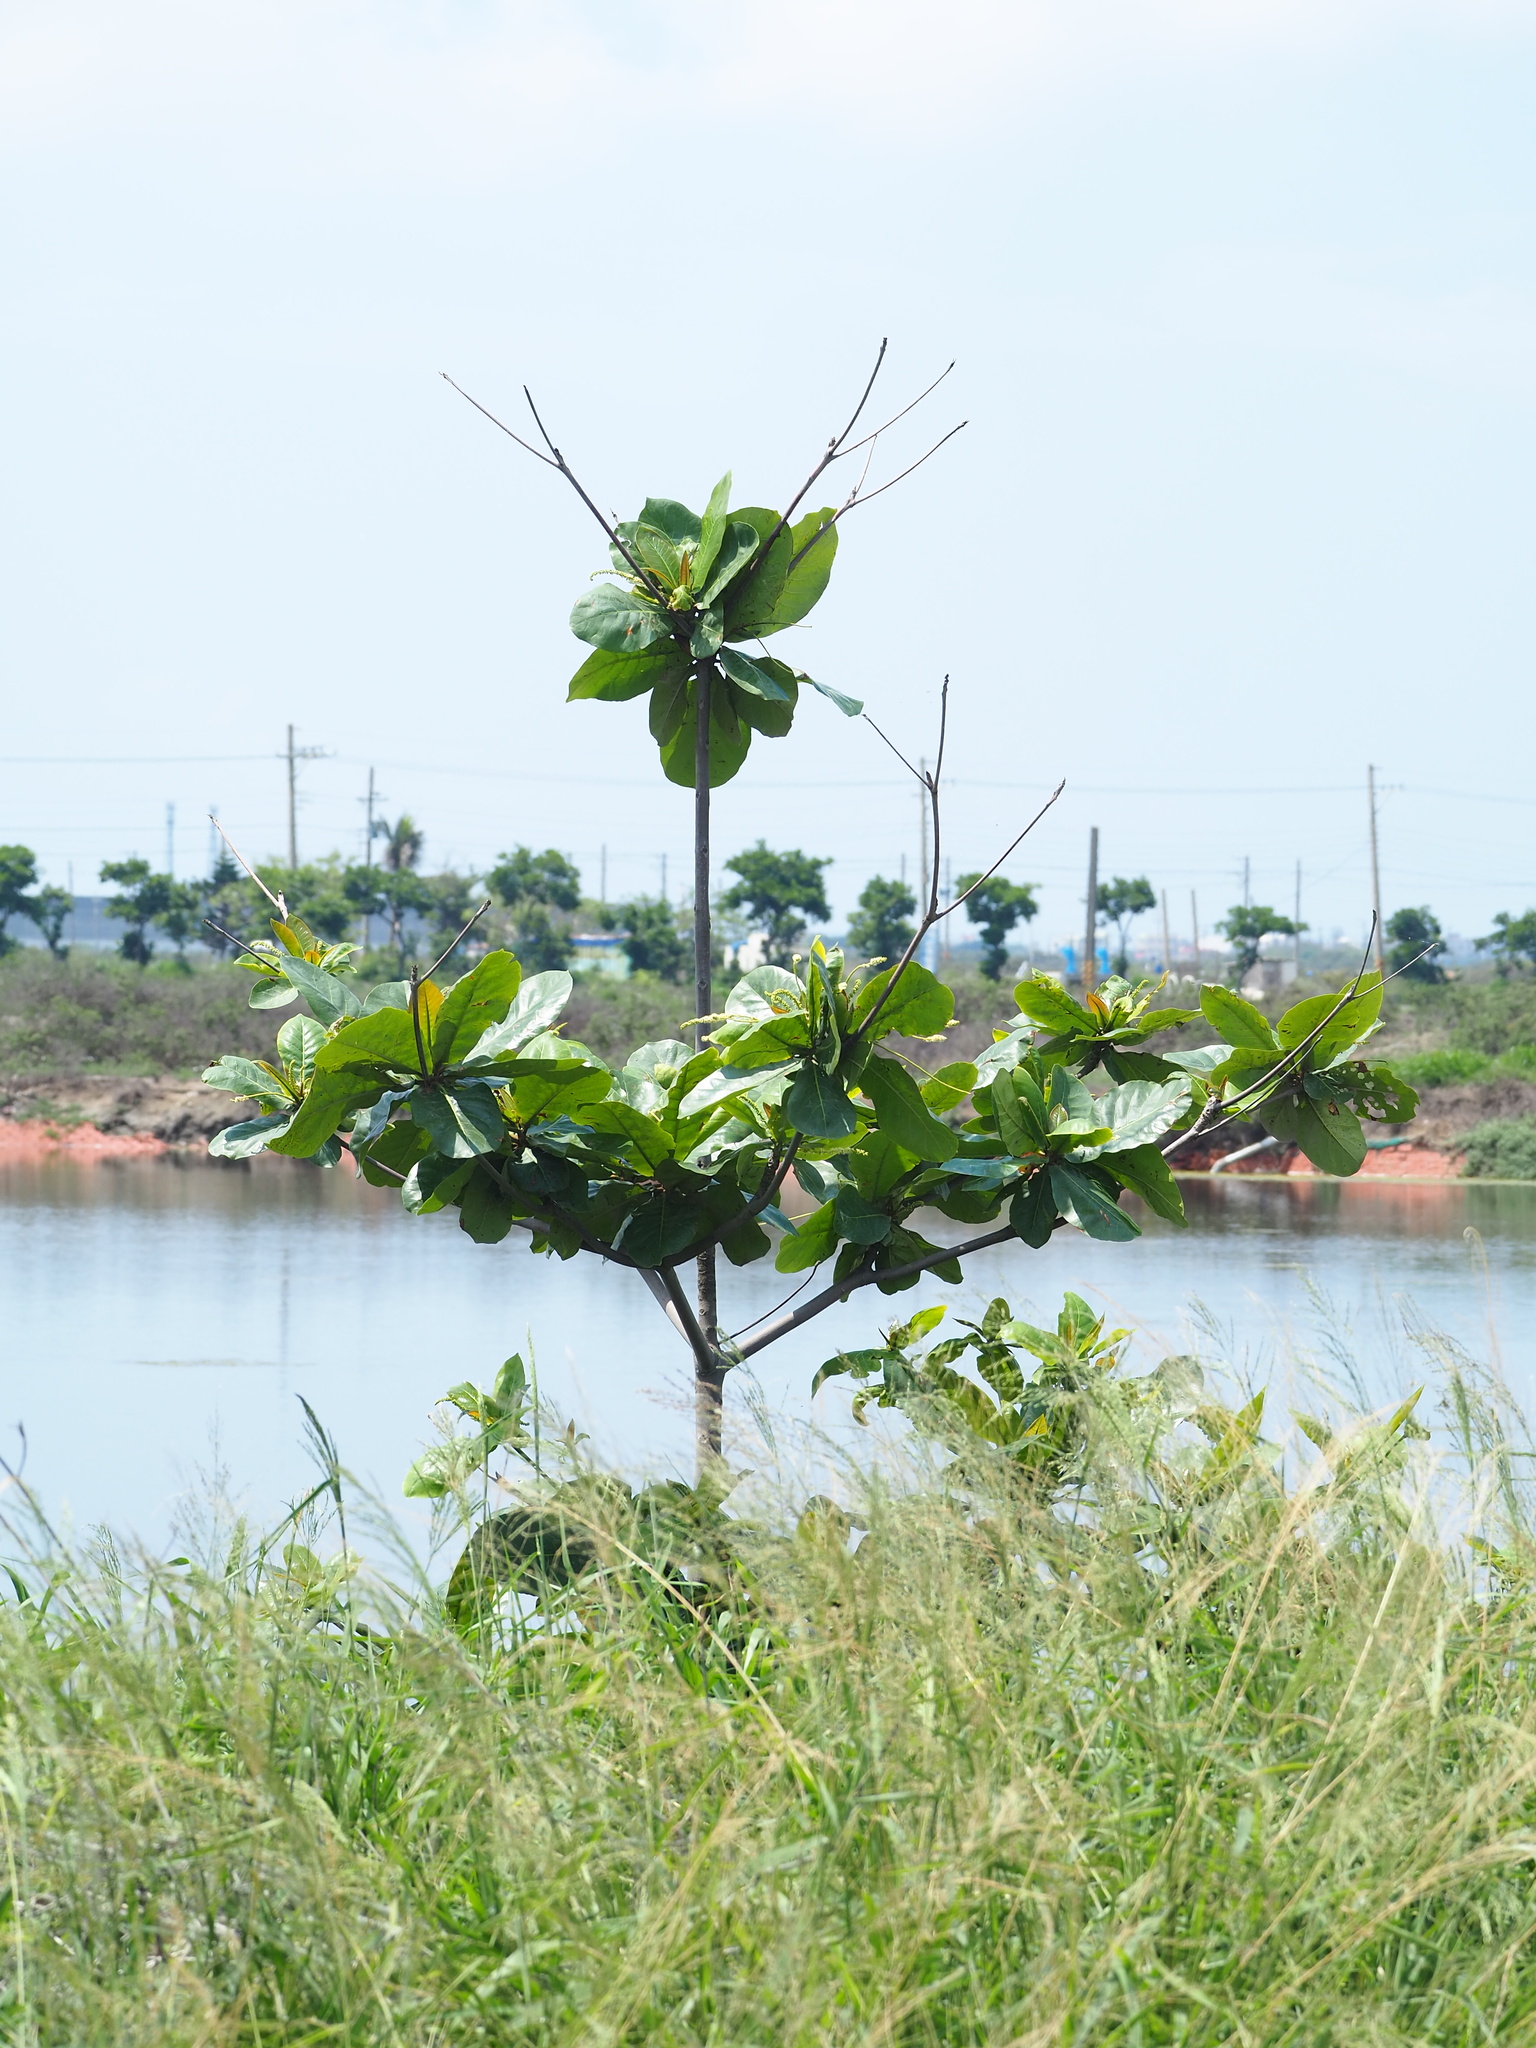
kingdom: Plantae
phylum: Tracheophyta
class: Magnoliopsida
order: Myrtales
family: Combretaceae
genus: Terminalia
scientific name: Terminalia catappa
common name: Tropical almond
